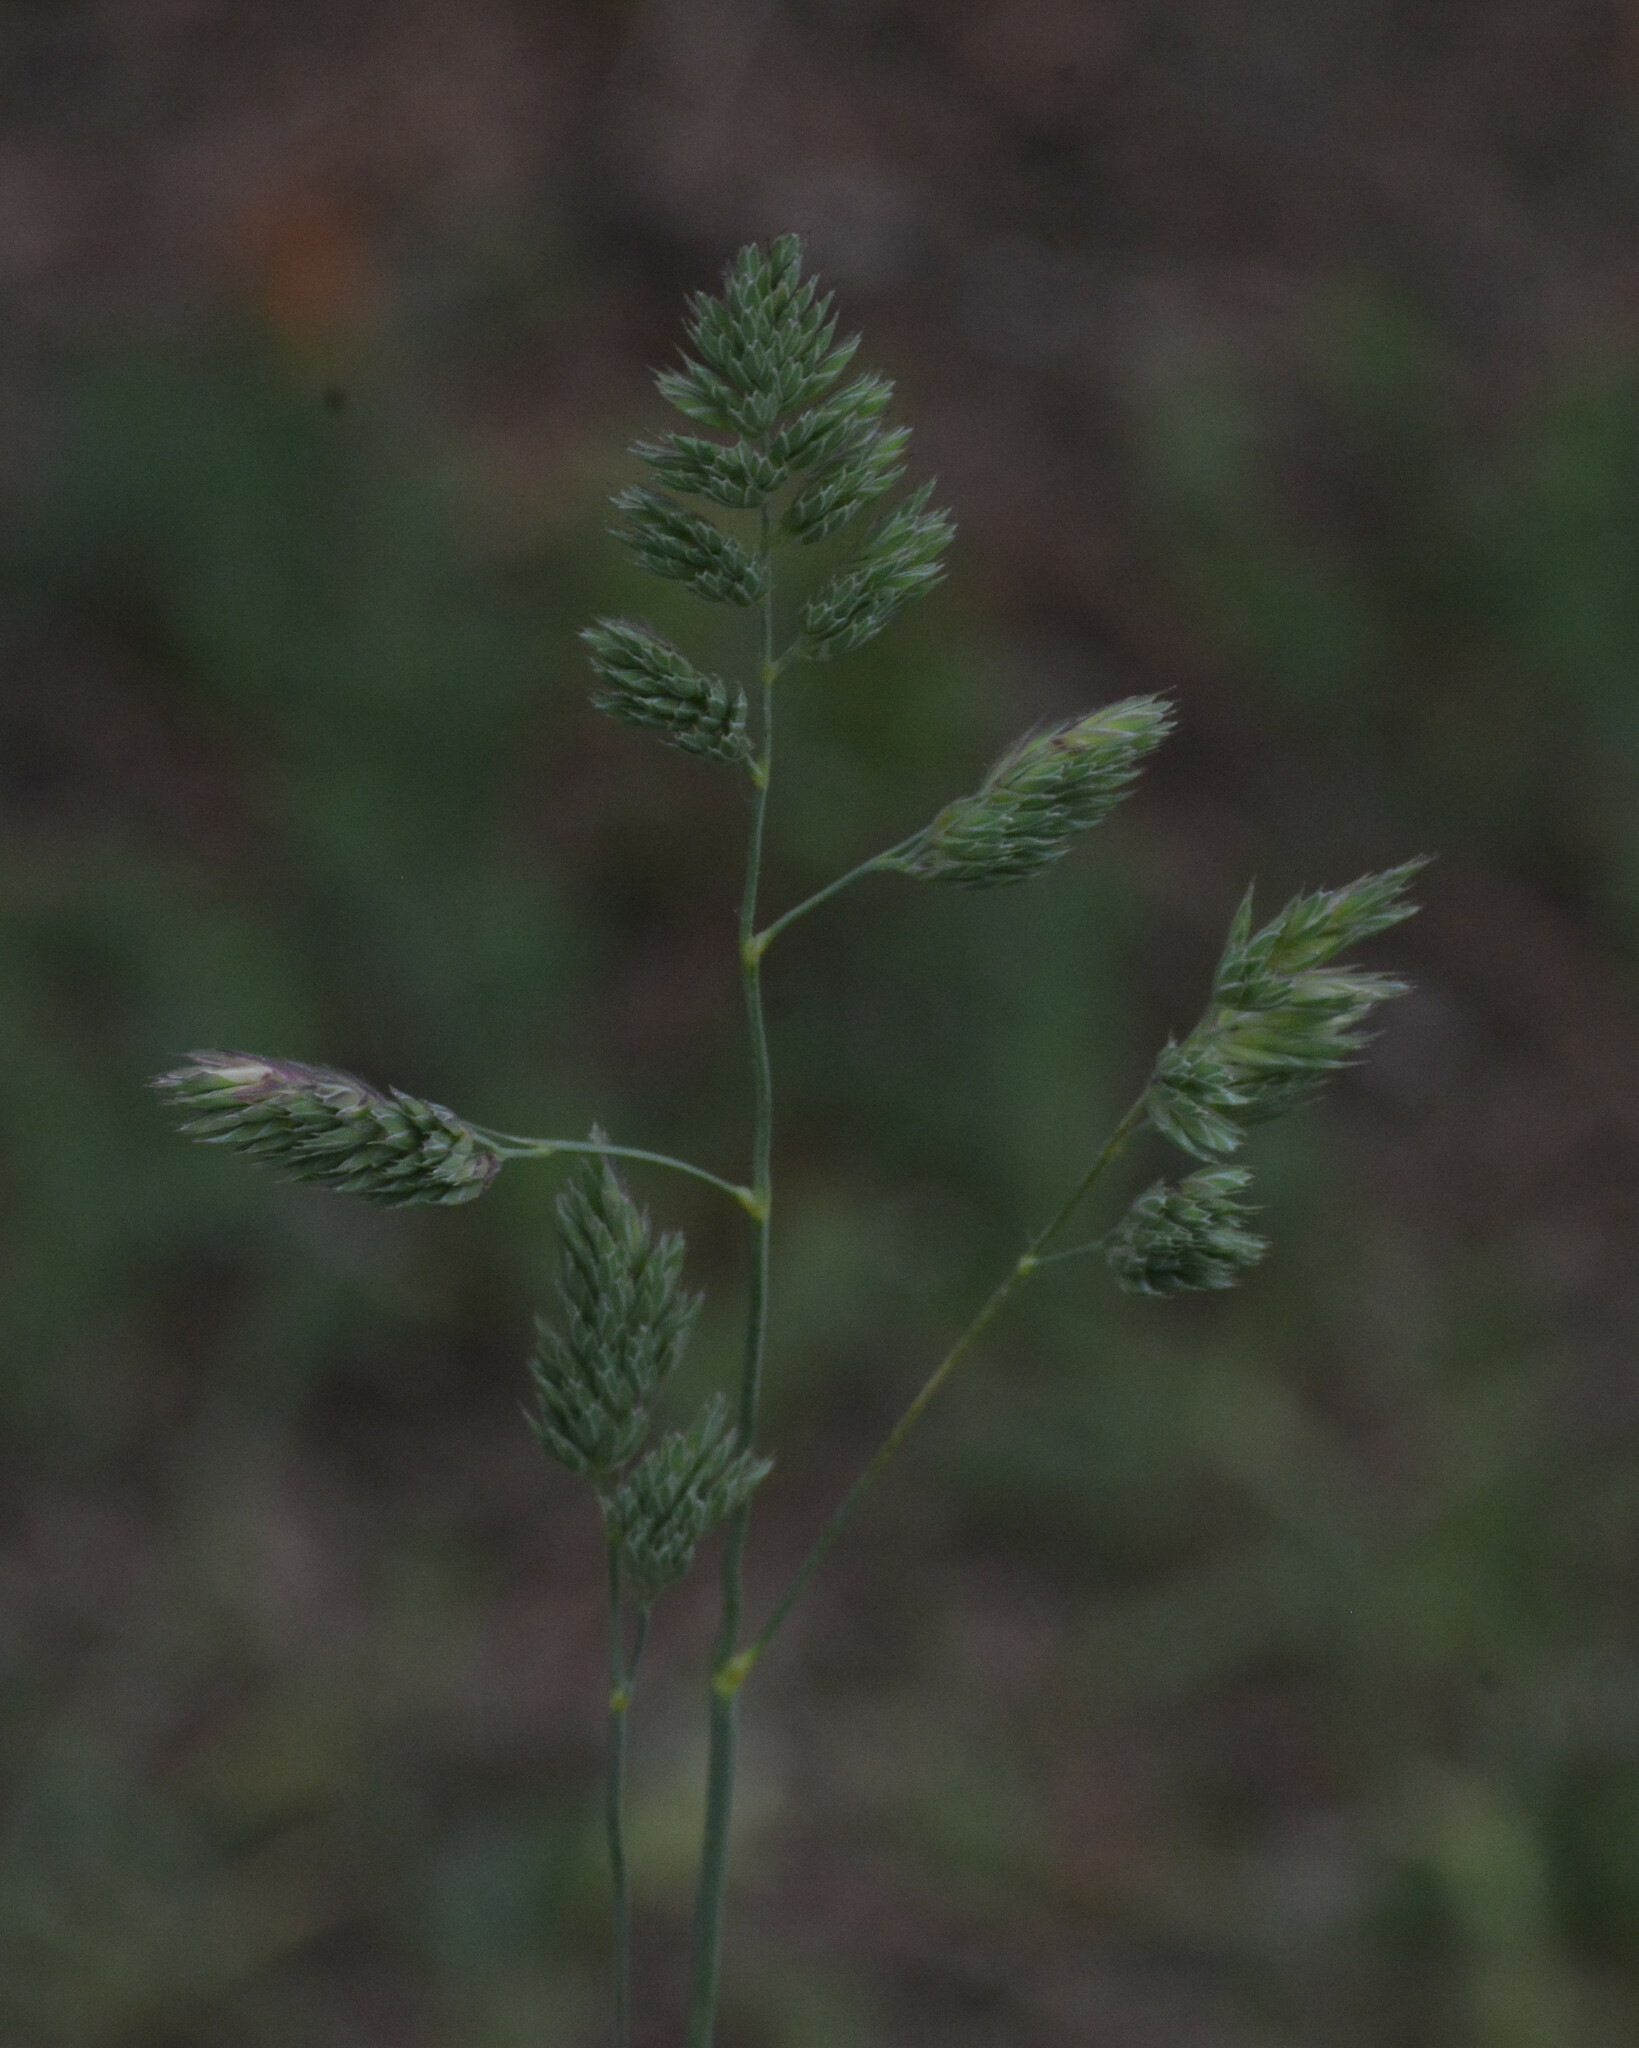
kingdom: Plantae
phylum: Tracheophyta
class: Liliopsida
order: Poales
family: Poaceae
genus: Dactylis
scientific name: Dactylis glomerata
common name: Orchardgrass
